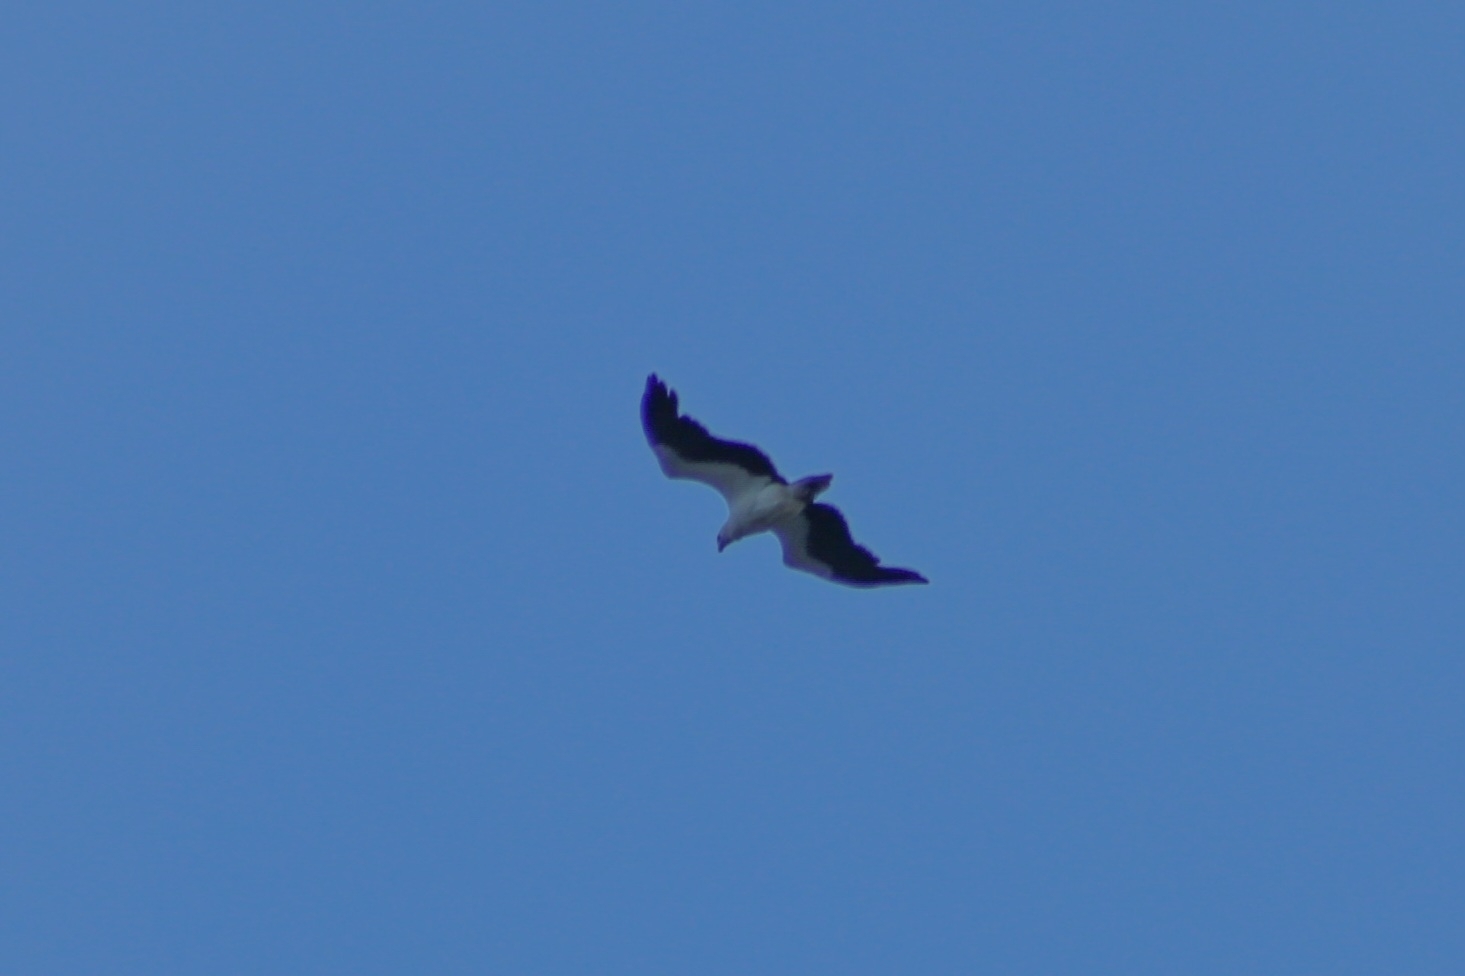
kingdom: Animalia
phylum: Chordata
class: Aves
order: Accipitriformes
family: Accipitridae
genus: Haliaeetus
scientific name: Haliaeetus leucogaster
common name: White-bellied sea eagle
